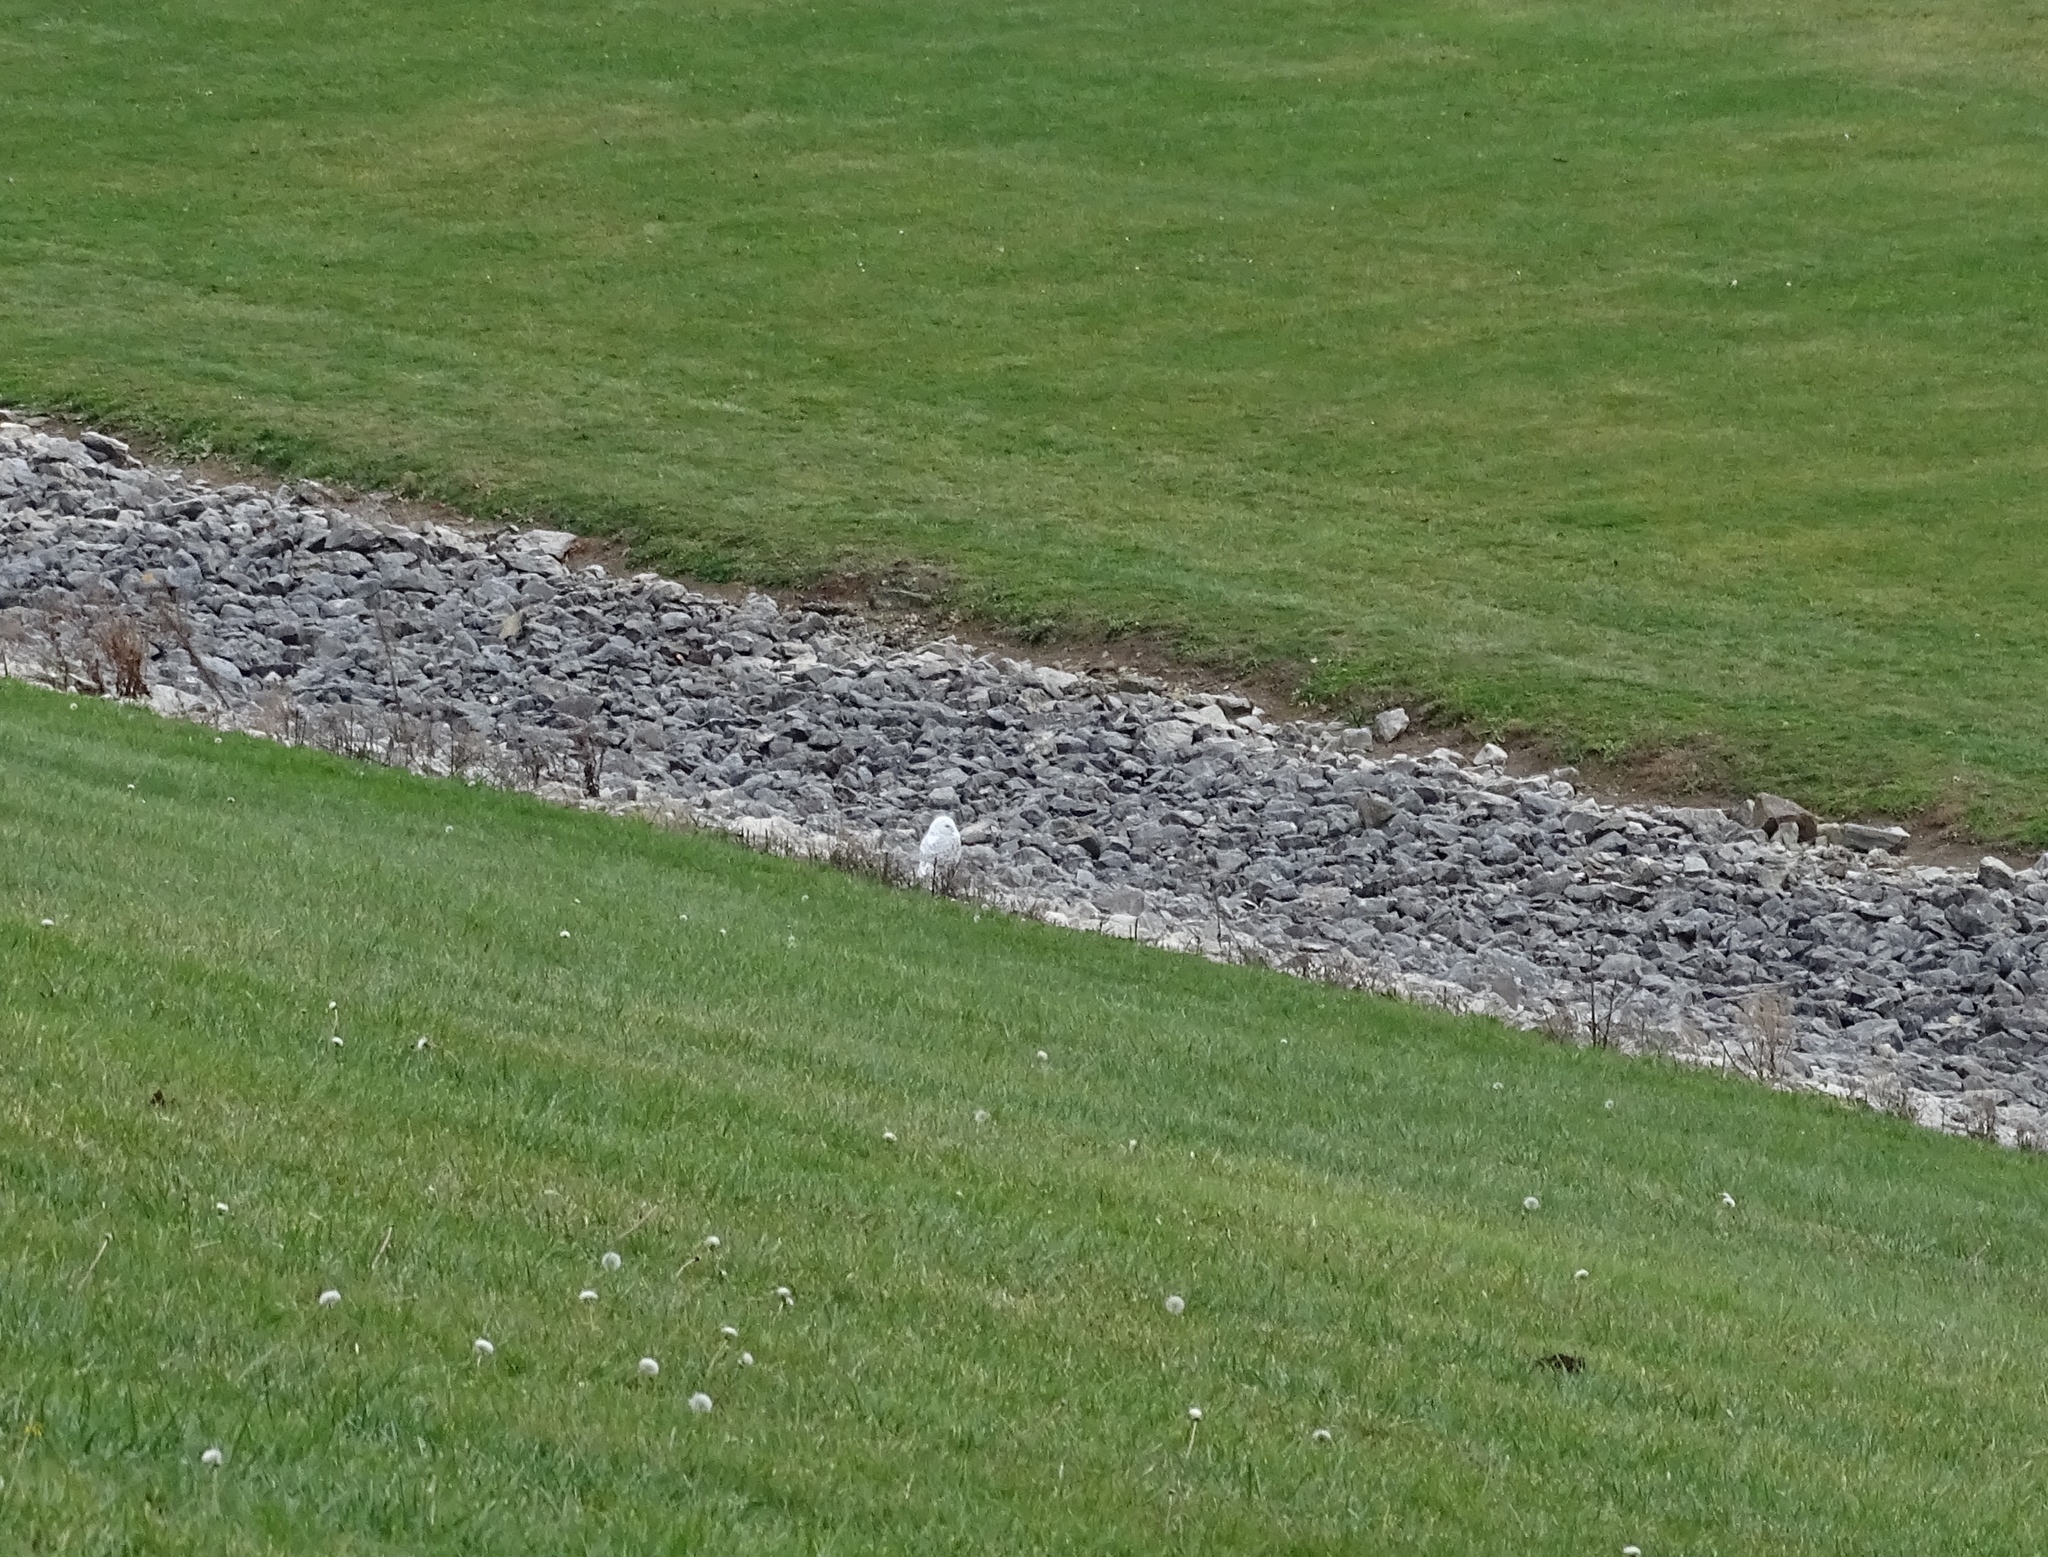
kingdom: Animalia
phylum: Chordata
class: Aves
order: Strigiformes
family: Strigidae
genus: Bubo
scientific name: Bubo scandiacus
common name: Snowy owl
